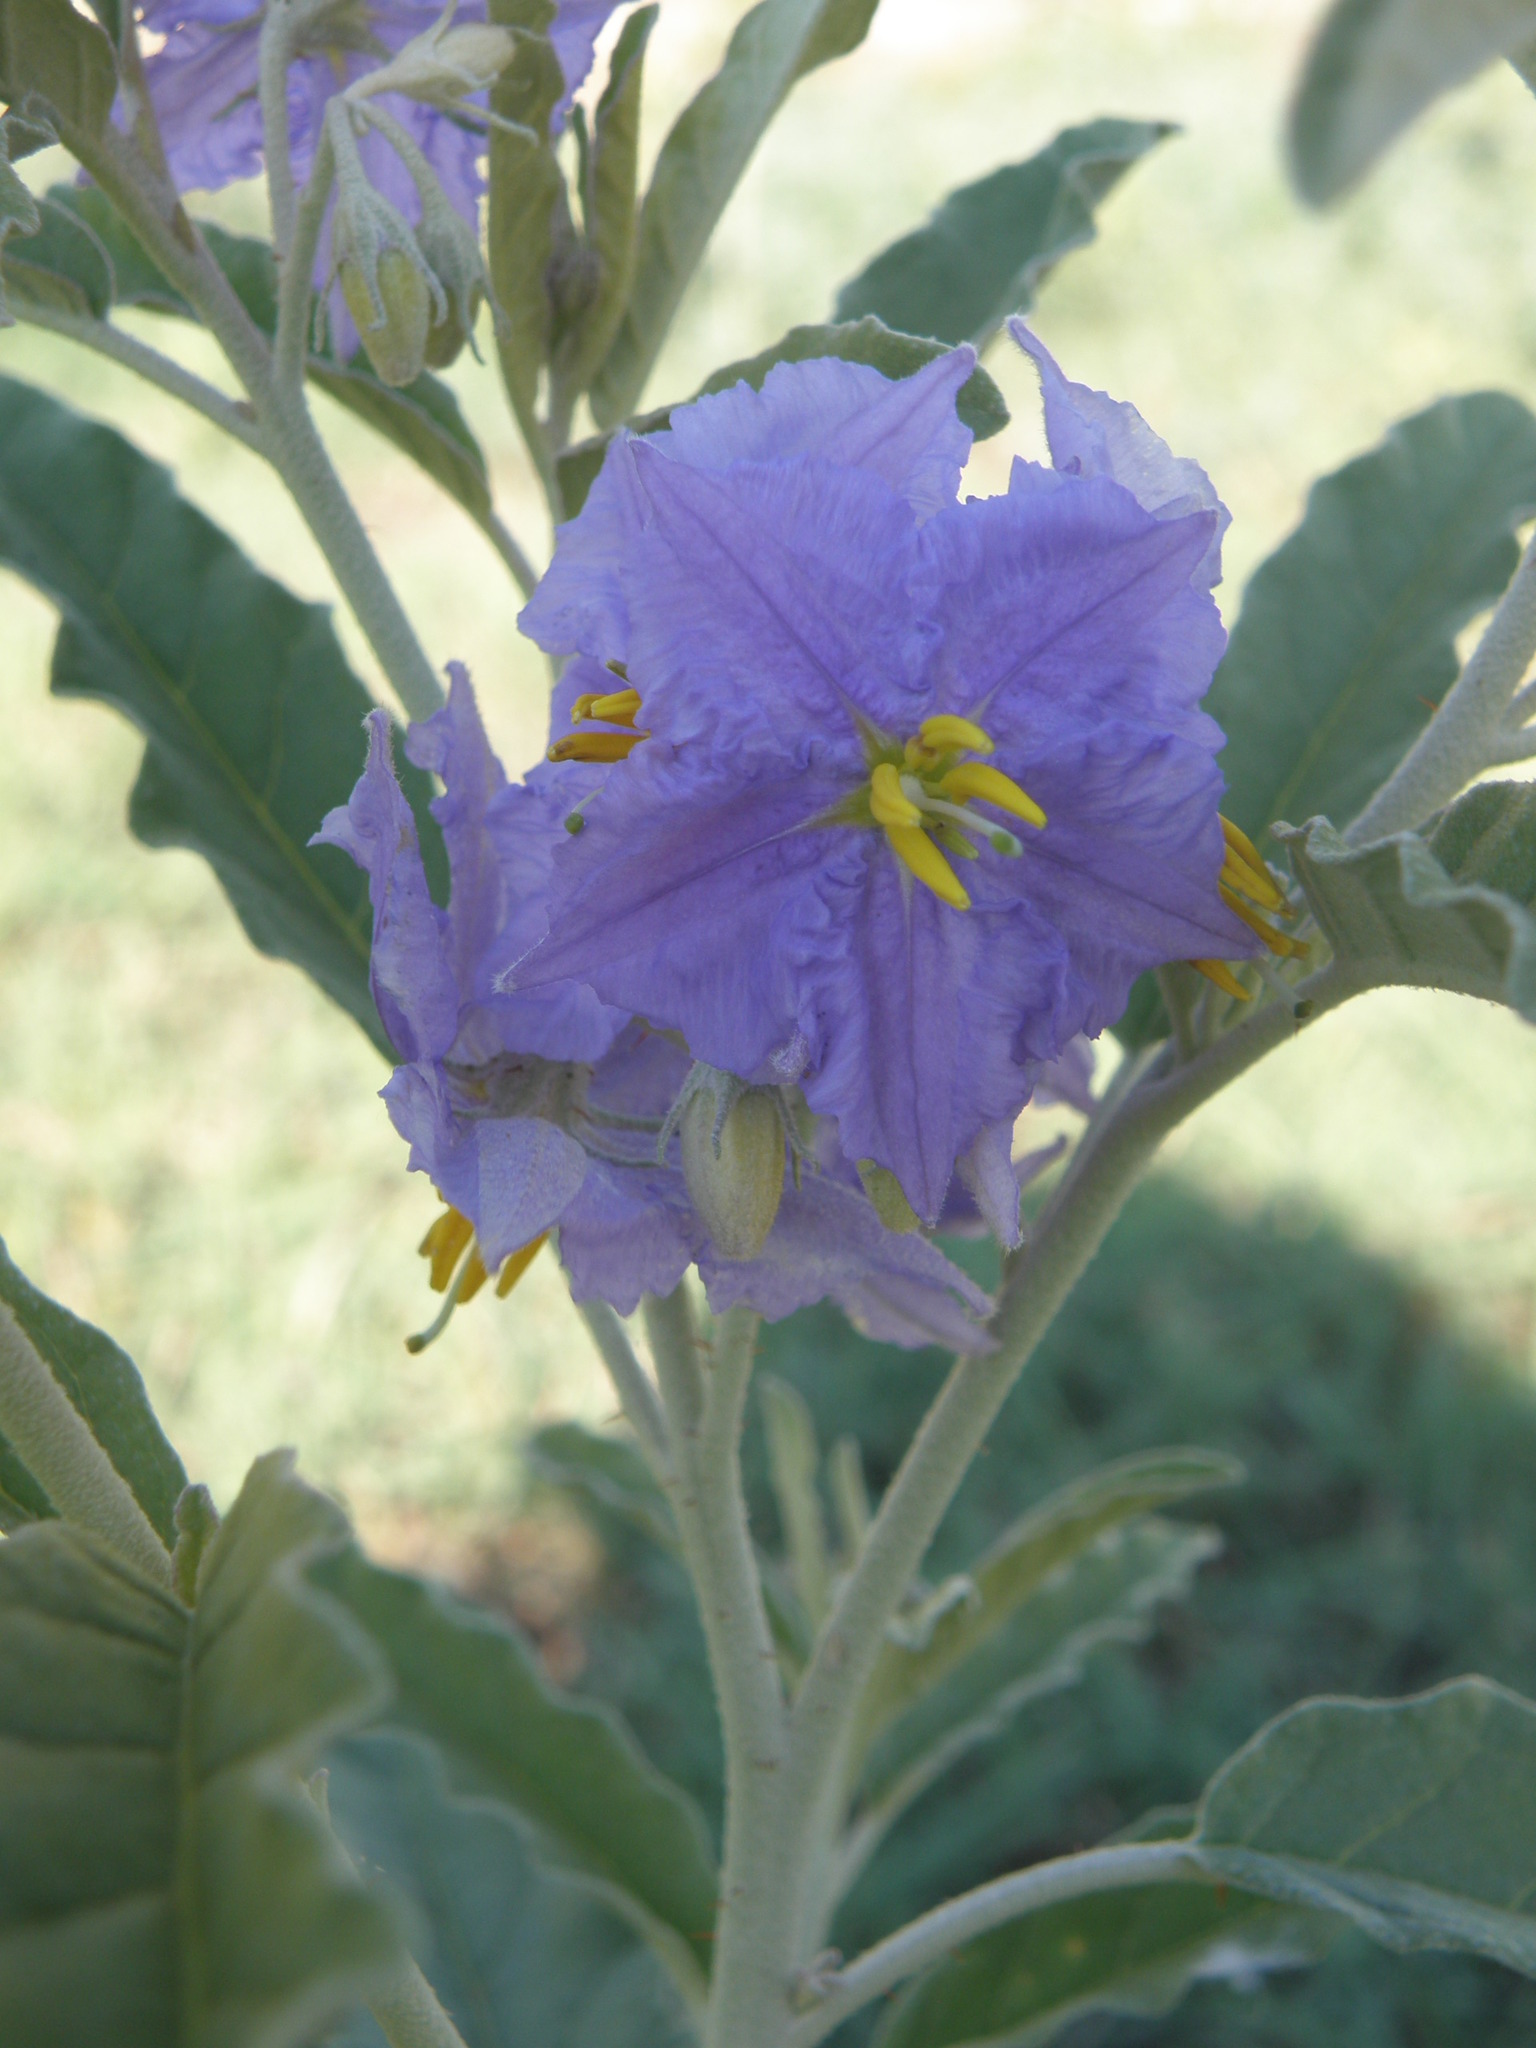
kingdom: Plantae
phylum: Tracheophyta
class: Magnoliopsida
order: Solanales
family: Solanaceae
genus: Solanum
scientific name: Solanum elaeagnifolium
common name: Silverleaf nightshade
